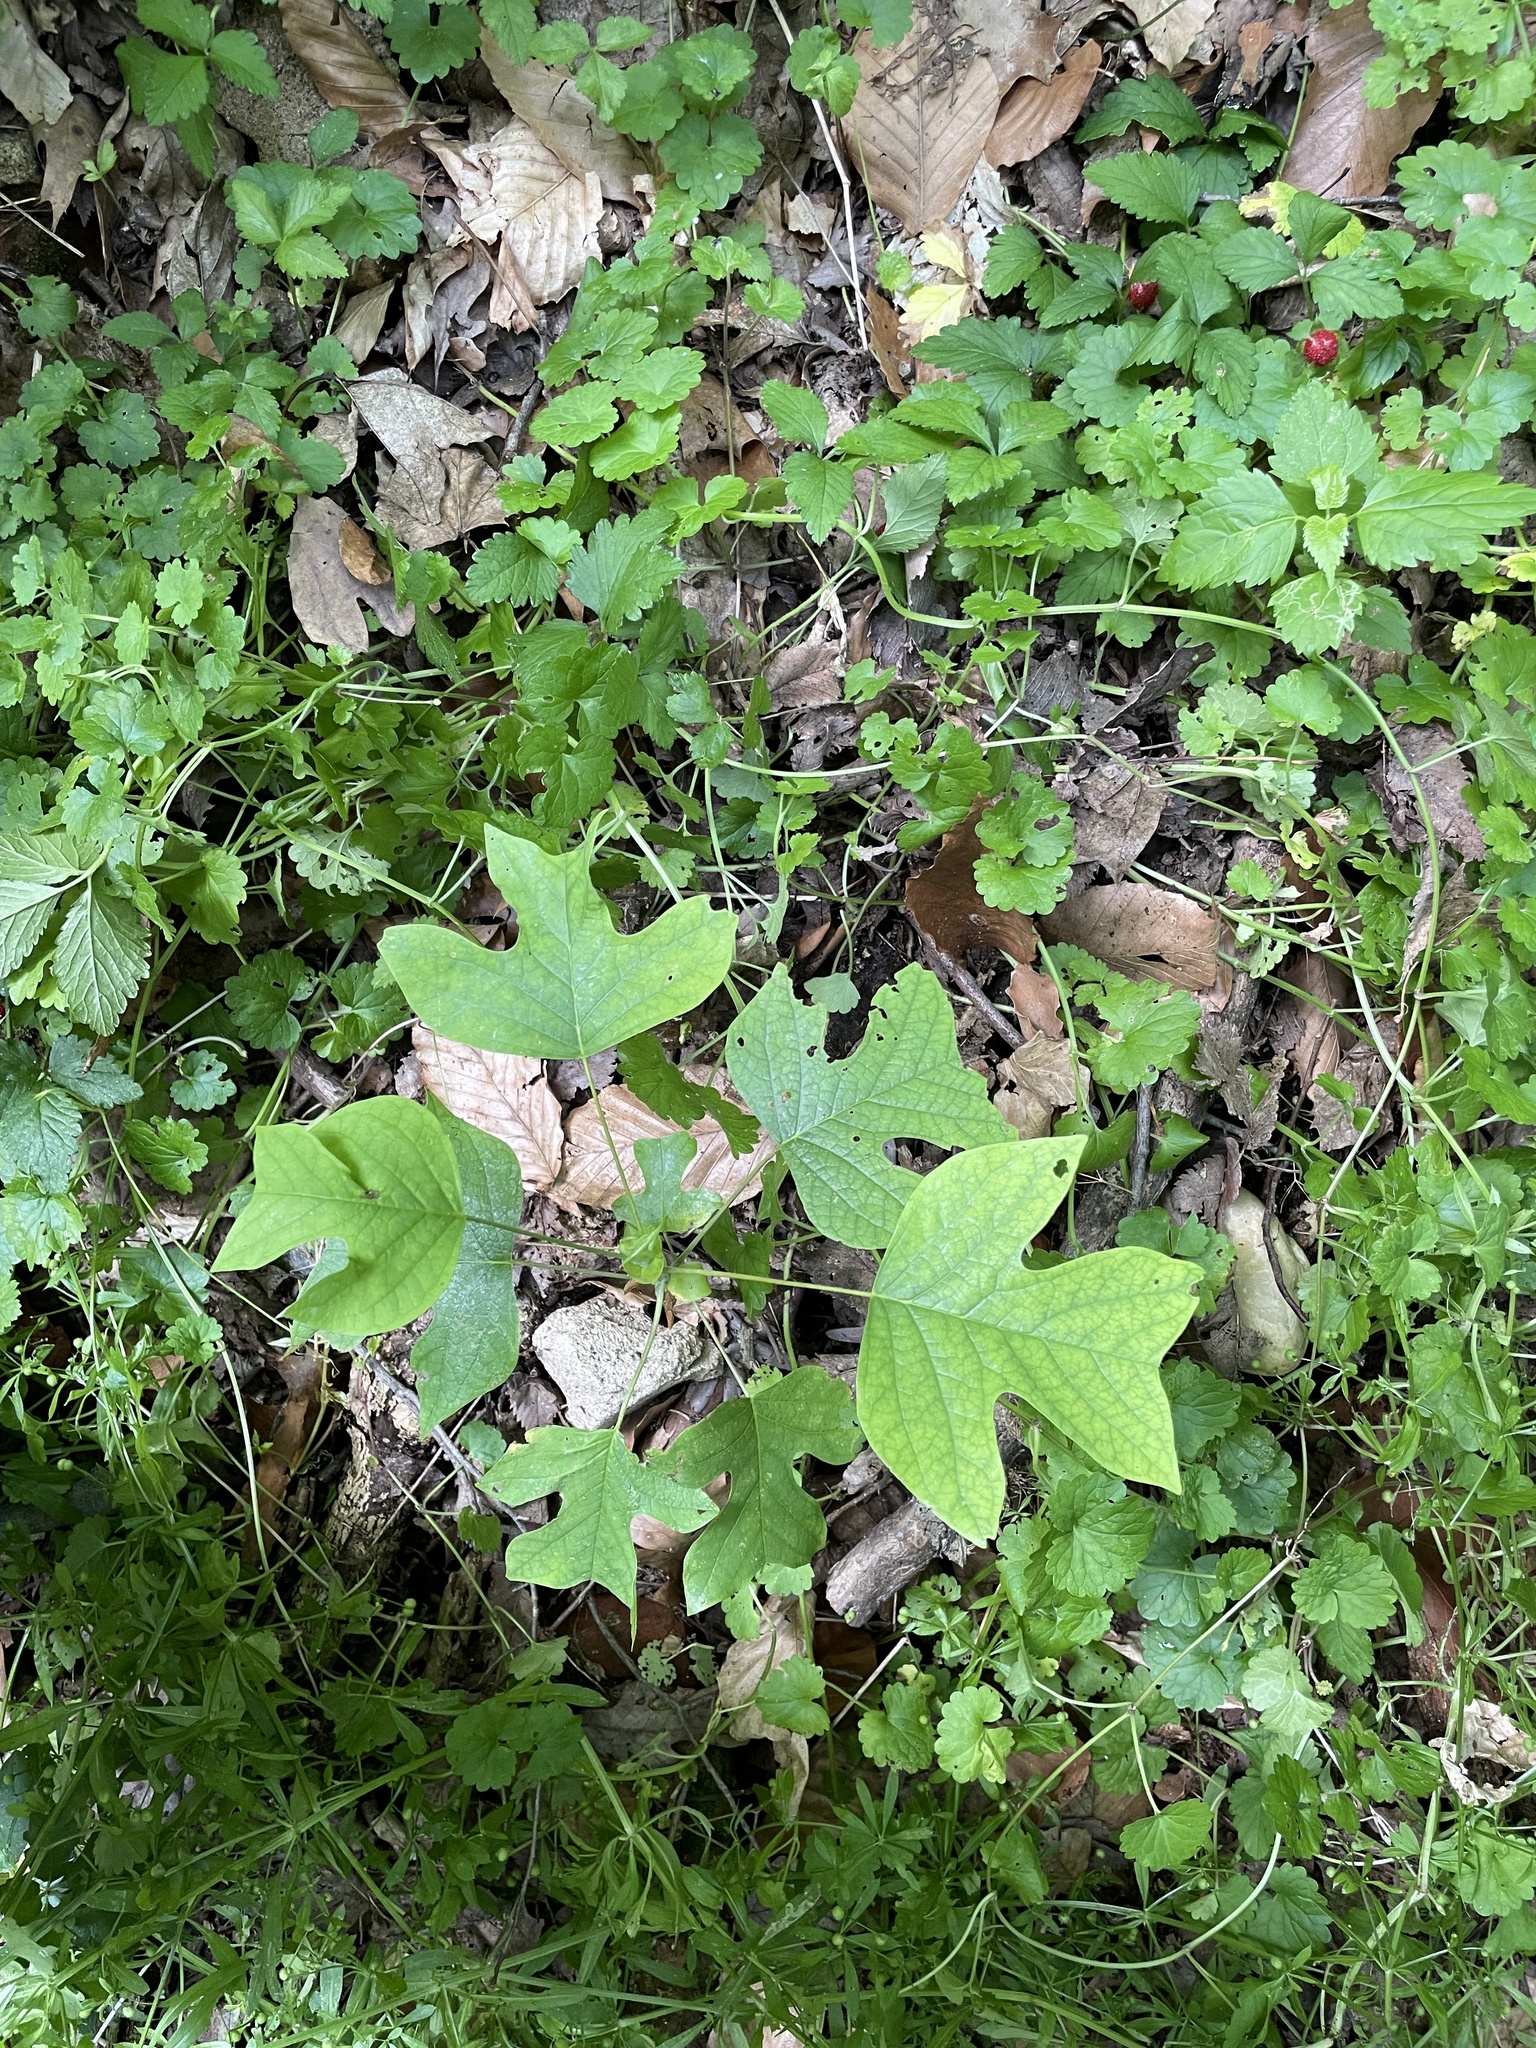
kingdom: Plantae
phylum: Tracheophyta
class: Magnoliopsida
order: Magnoliales
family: Magnoliaceae
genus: Liriodendron
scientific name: Liriodendron tulipifera
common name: Tulip tree
